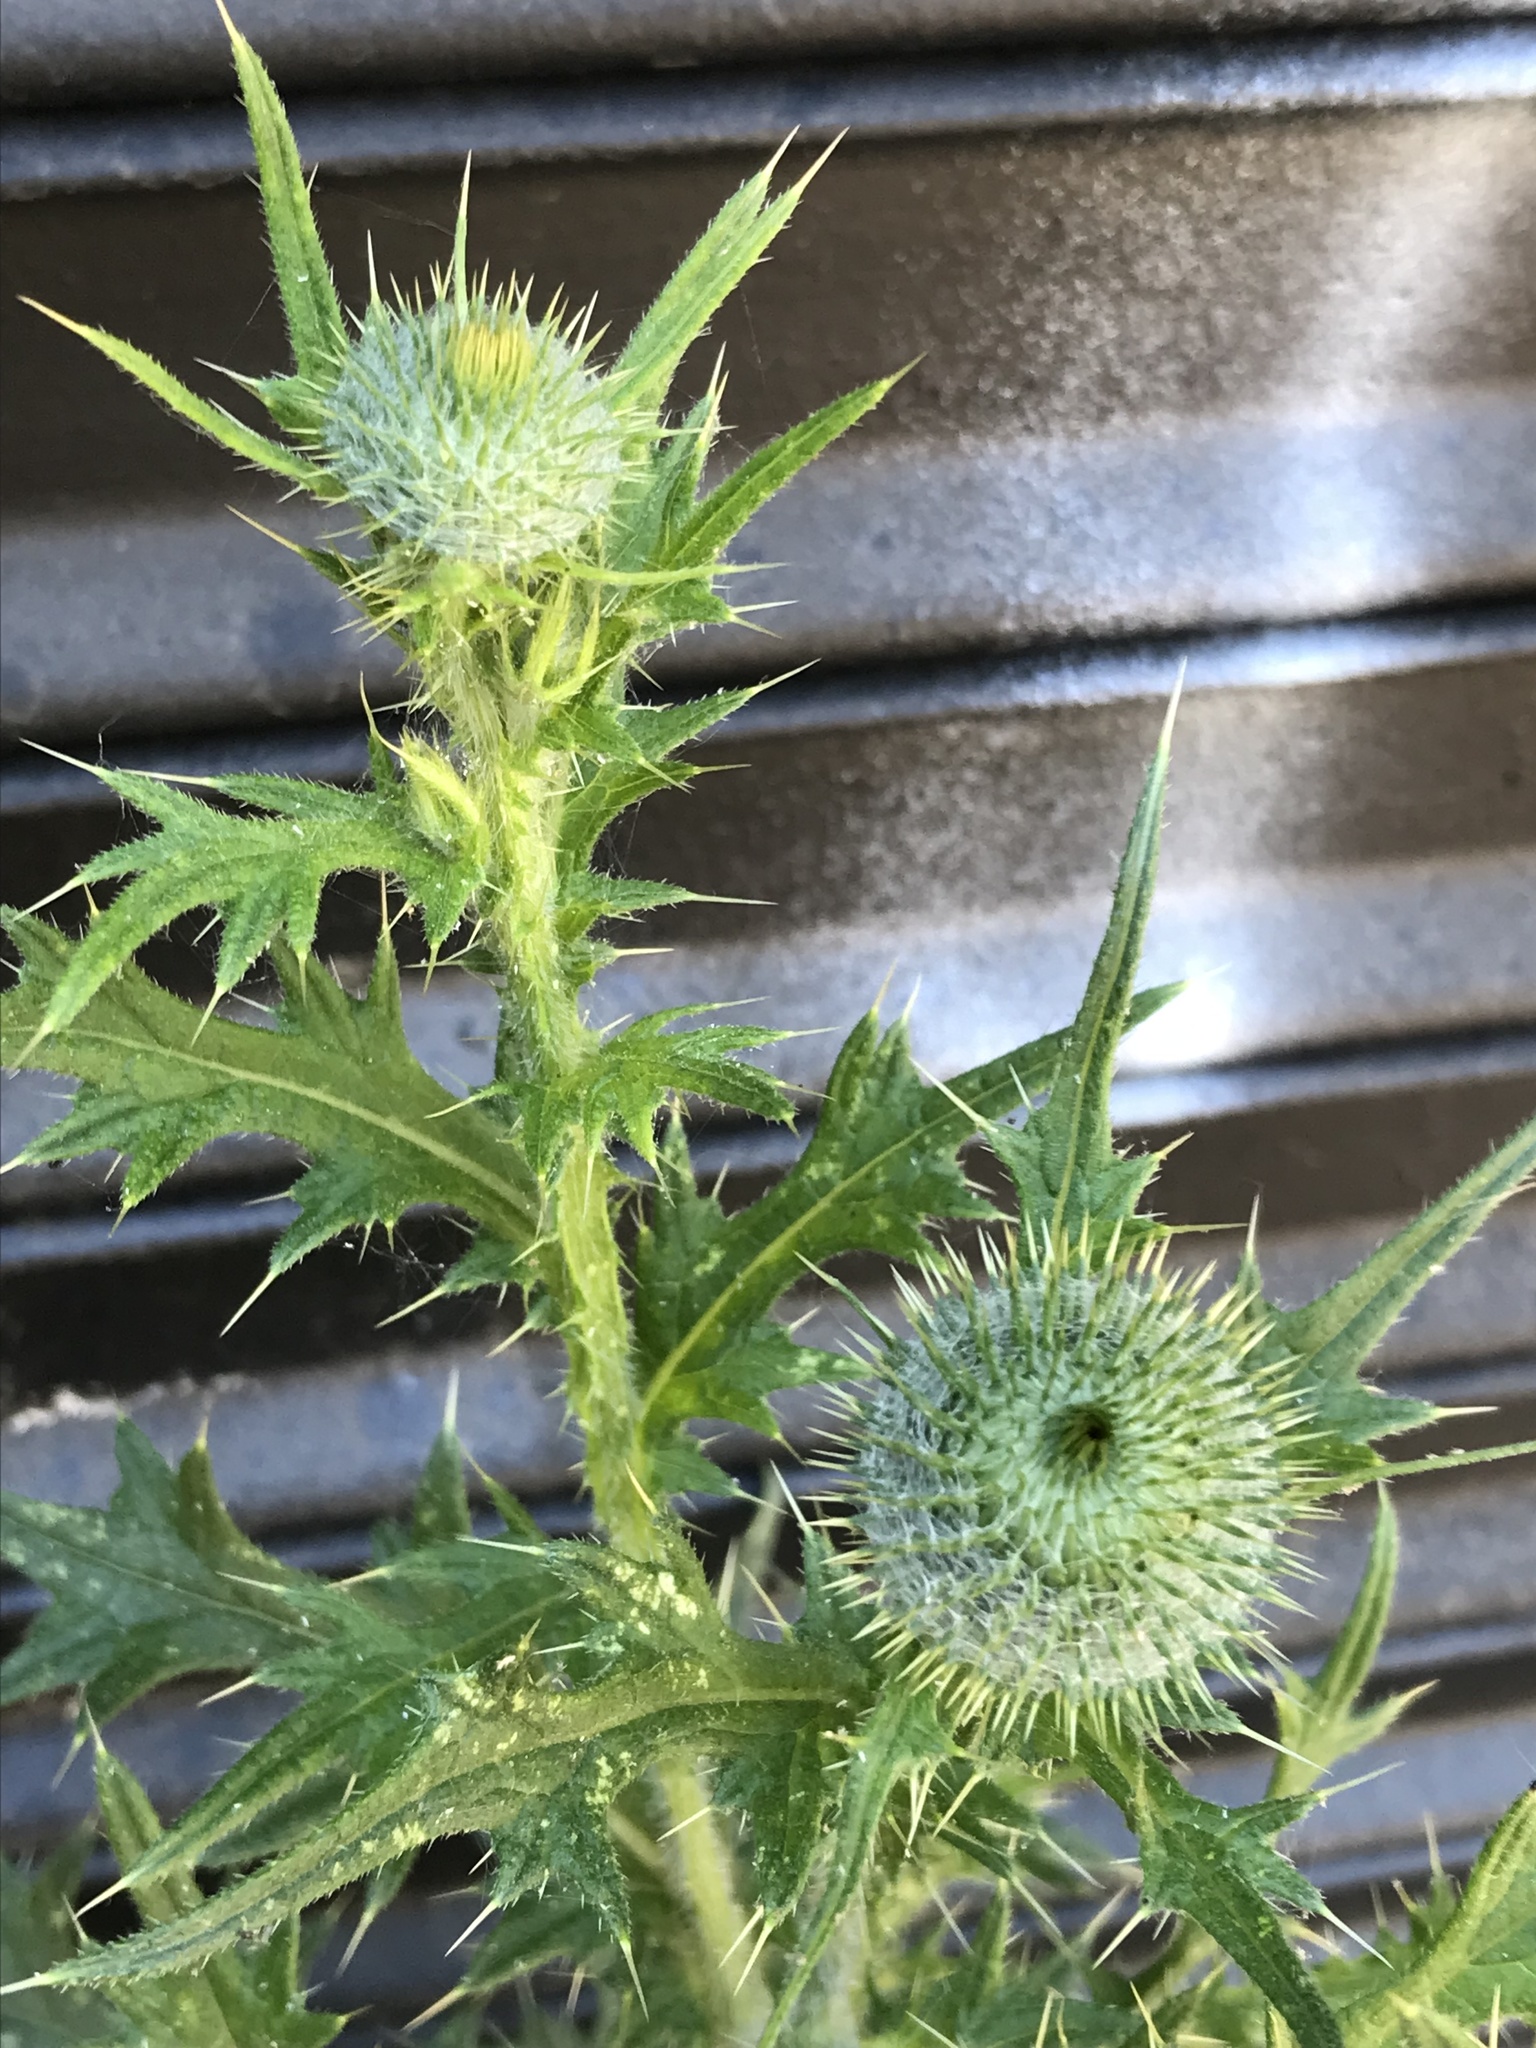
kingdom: Plantae
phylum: Tracheophyta
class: Magnoliopsida
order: Asterales
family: Asteraceae
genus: Cirsium
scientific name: Cirsium vulgare
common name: Bull thistle
